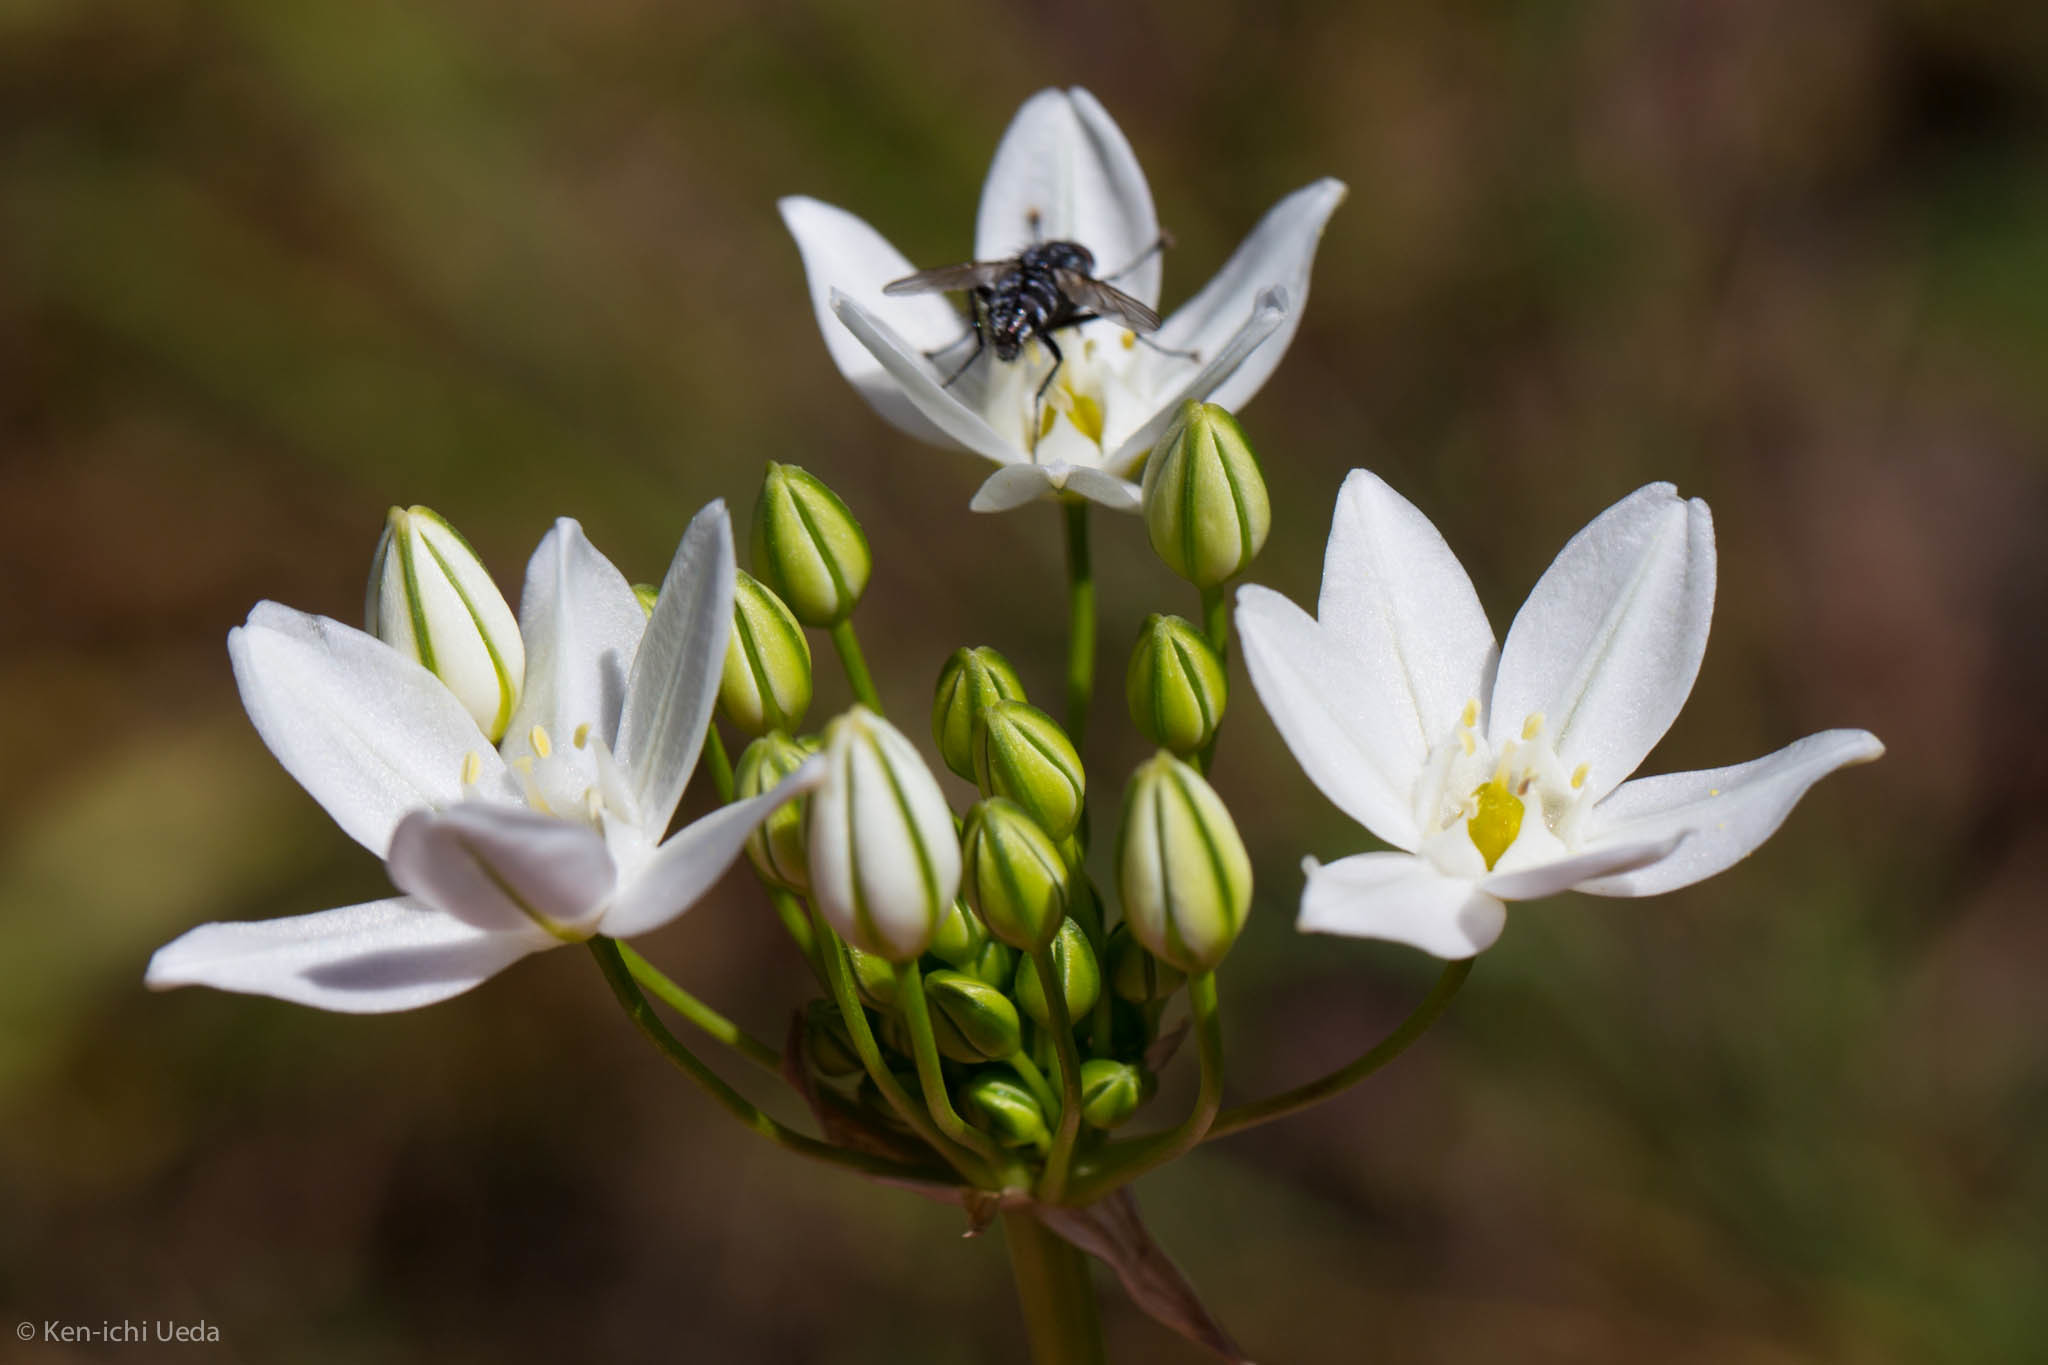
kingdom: Plantae
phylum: Tracheophyta
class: Liliopsida
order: Asparagales
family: Asparagaceae
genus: Triteleia
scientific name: Triteleia hyacinthina
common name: White brodiaea
